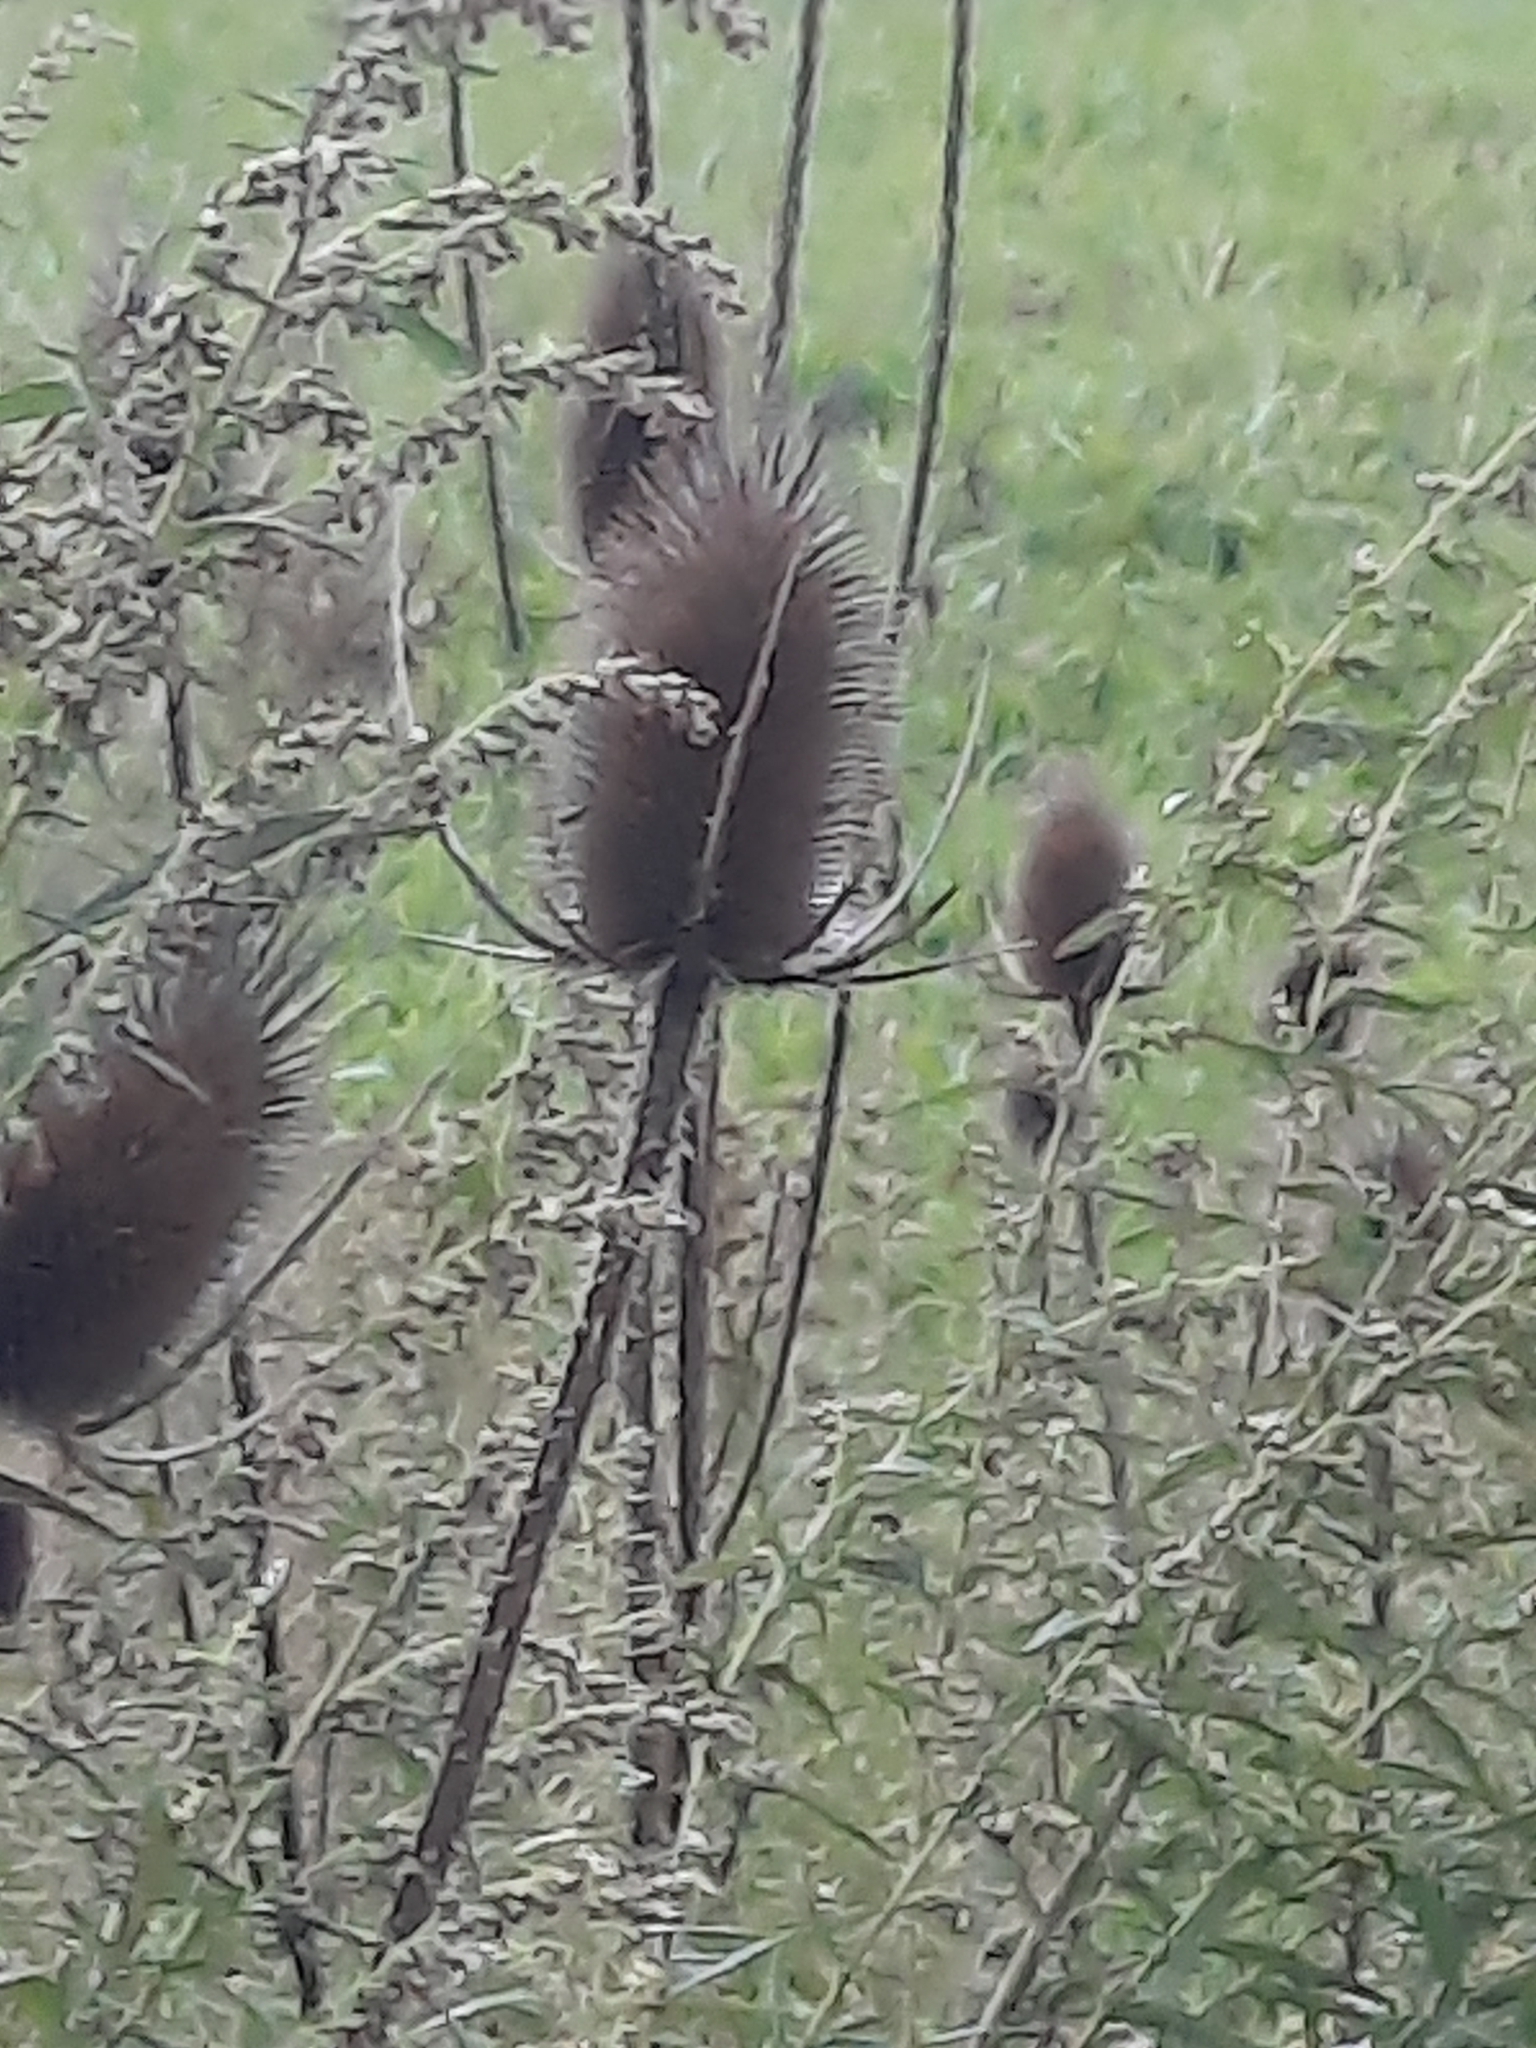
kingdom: Plantae
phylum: Tracheophyta
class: Magnoliopsida
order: Dipsacales
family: Caprifoliaceae
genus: Dipsacus
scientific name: Dipsacus fullonum
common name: Teasel
